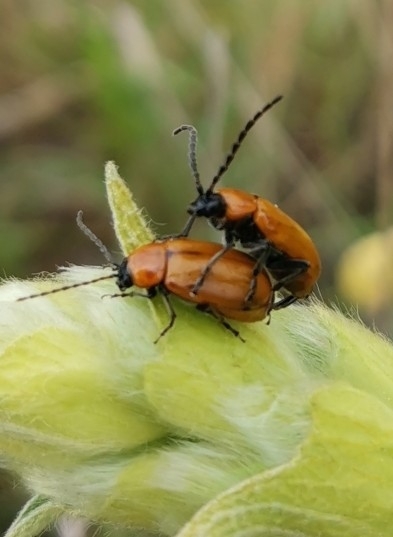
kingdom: Animalia
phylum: Arthropoda
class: Insecta
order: Coleoptera
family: Chrysomelidae
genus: Exosoma
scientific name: Exosoma lusitanicum
